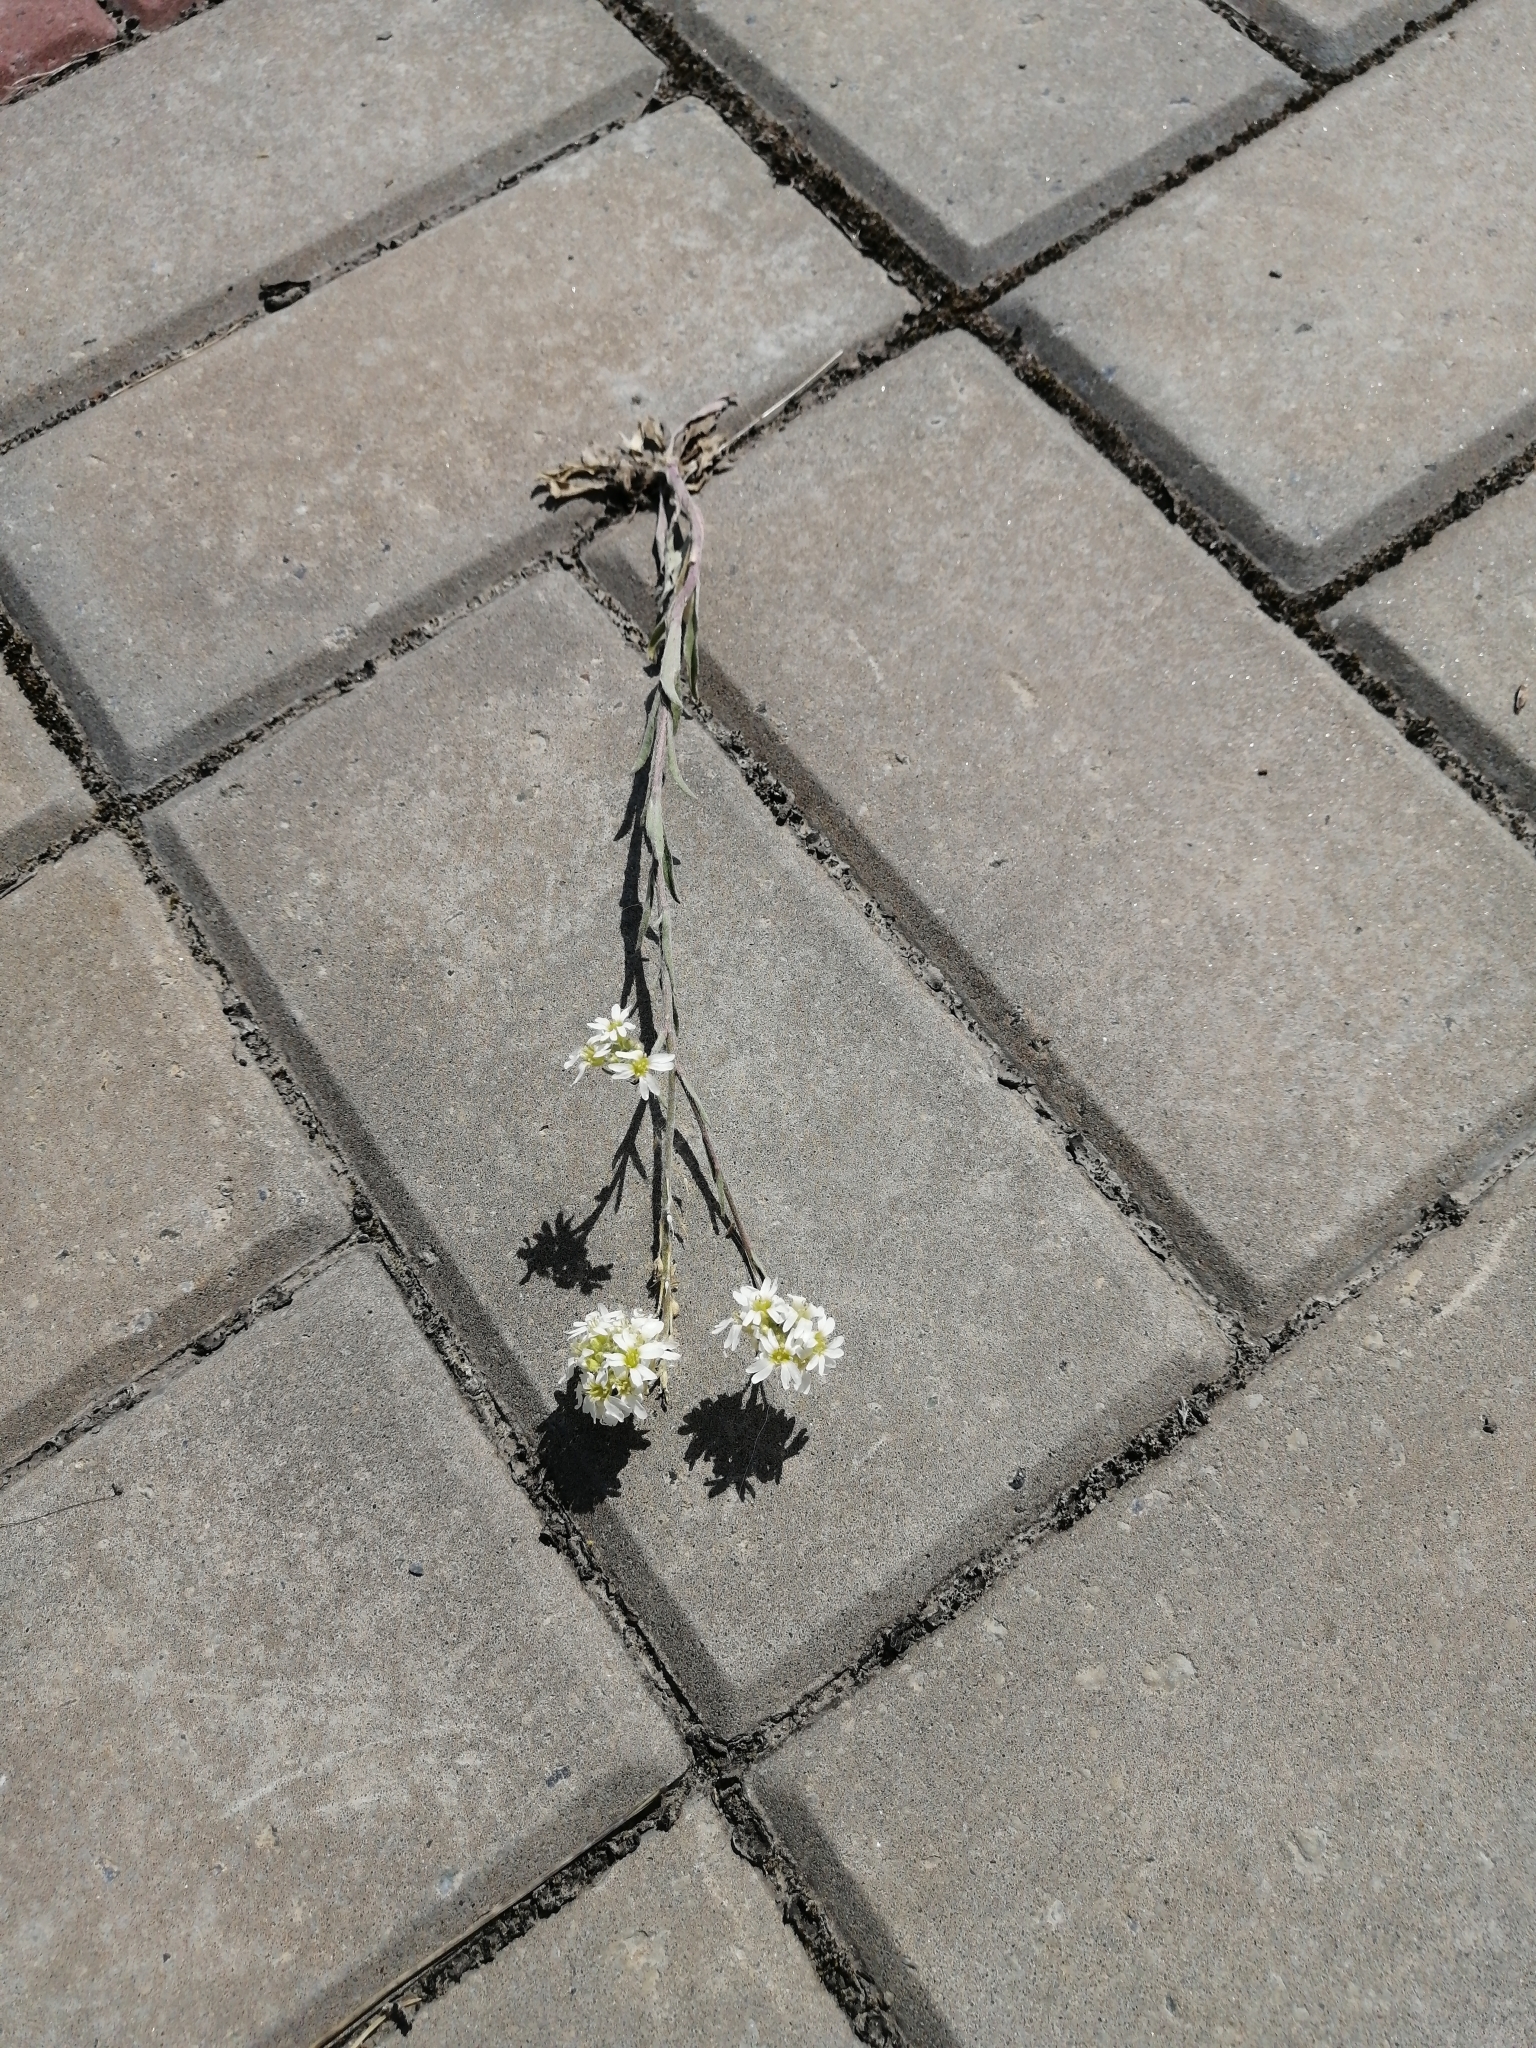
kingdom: Plantae
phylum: Tracheophyta
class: Magnoliopsida
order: Brassicales
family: Brassicaceae
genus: Berteroa
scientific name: Berteroa incana
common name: Hoary alison
